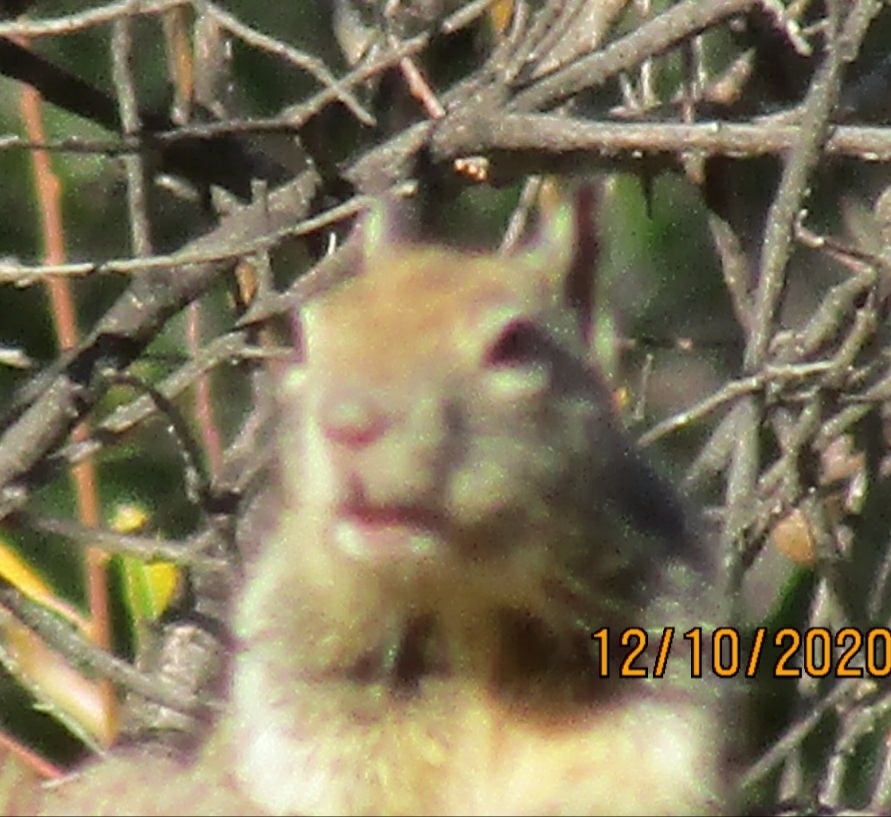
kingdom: Animalia
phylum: Chordata
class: Mammalia
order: Rodentia
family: Sciuridae
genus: Otospermophilus
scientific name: Otospermophilus beecheyi
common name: California ground squirrel
